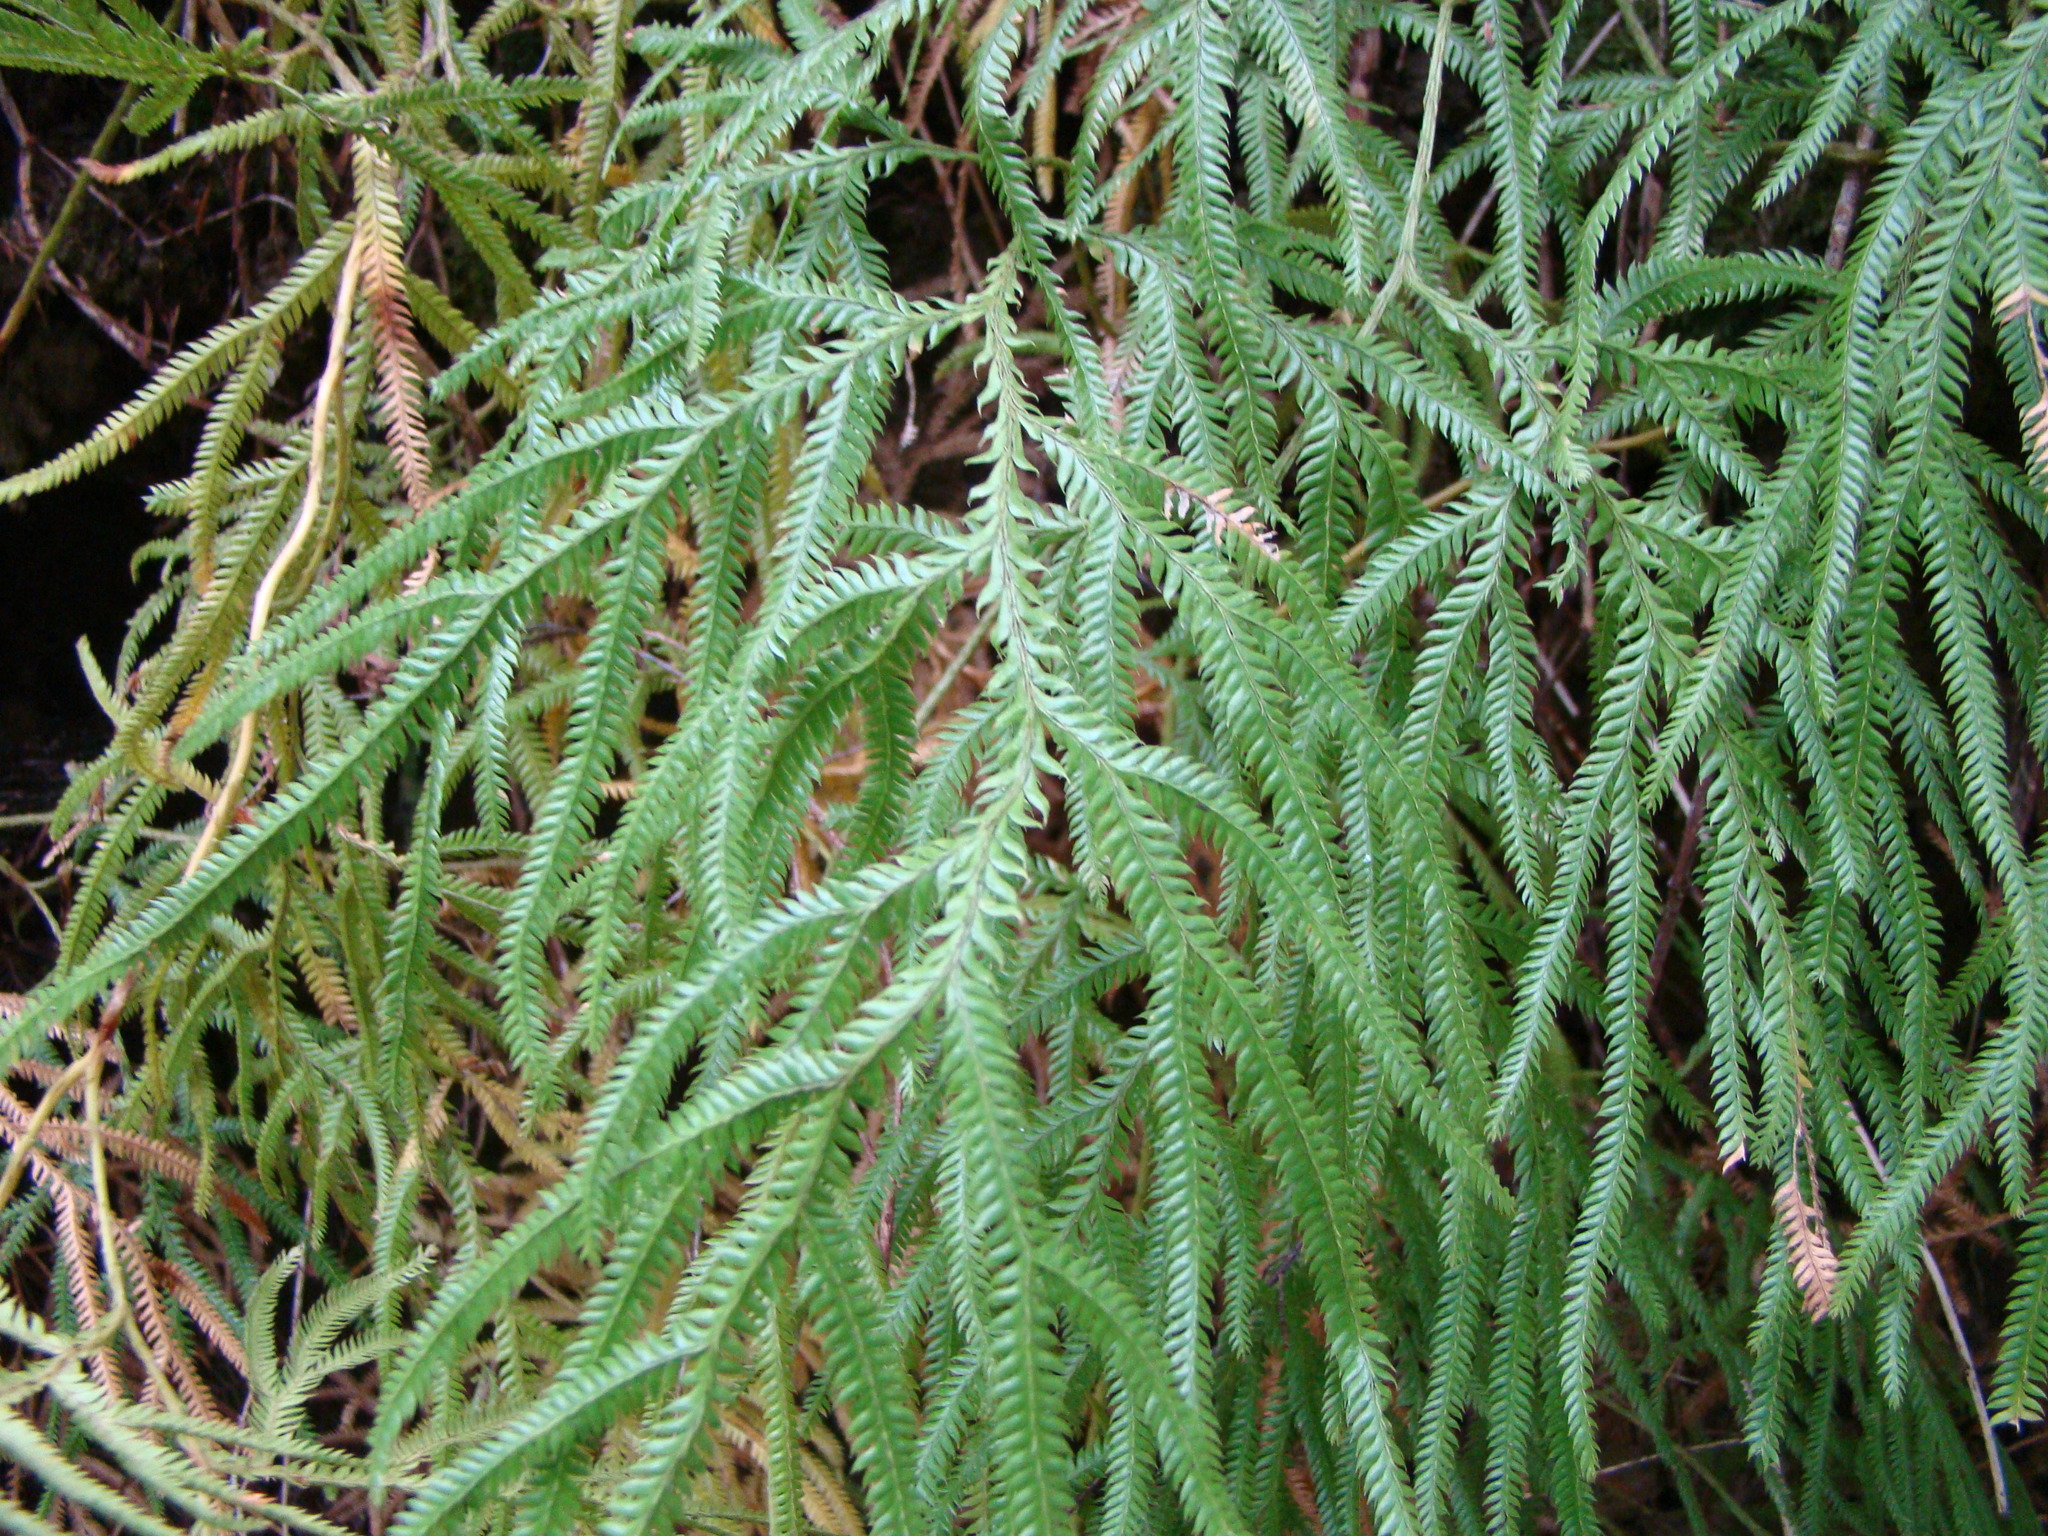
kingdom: Plantae
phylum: Tracheophyta
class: Lycopodiopsida
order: Lycopodiales
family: Lycopodiaceae
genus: Lycopodium
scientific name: Lycopodium volubile
